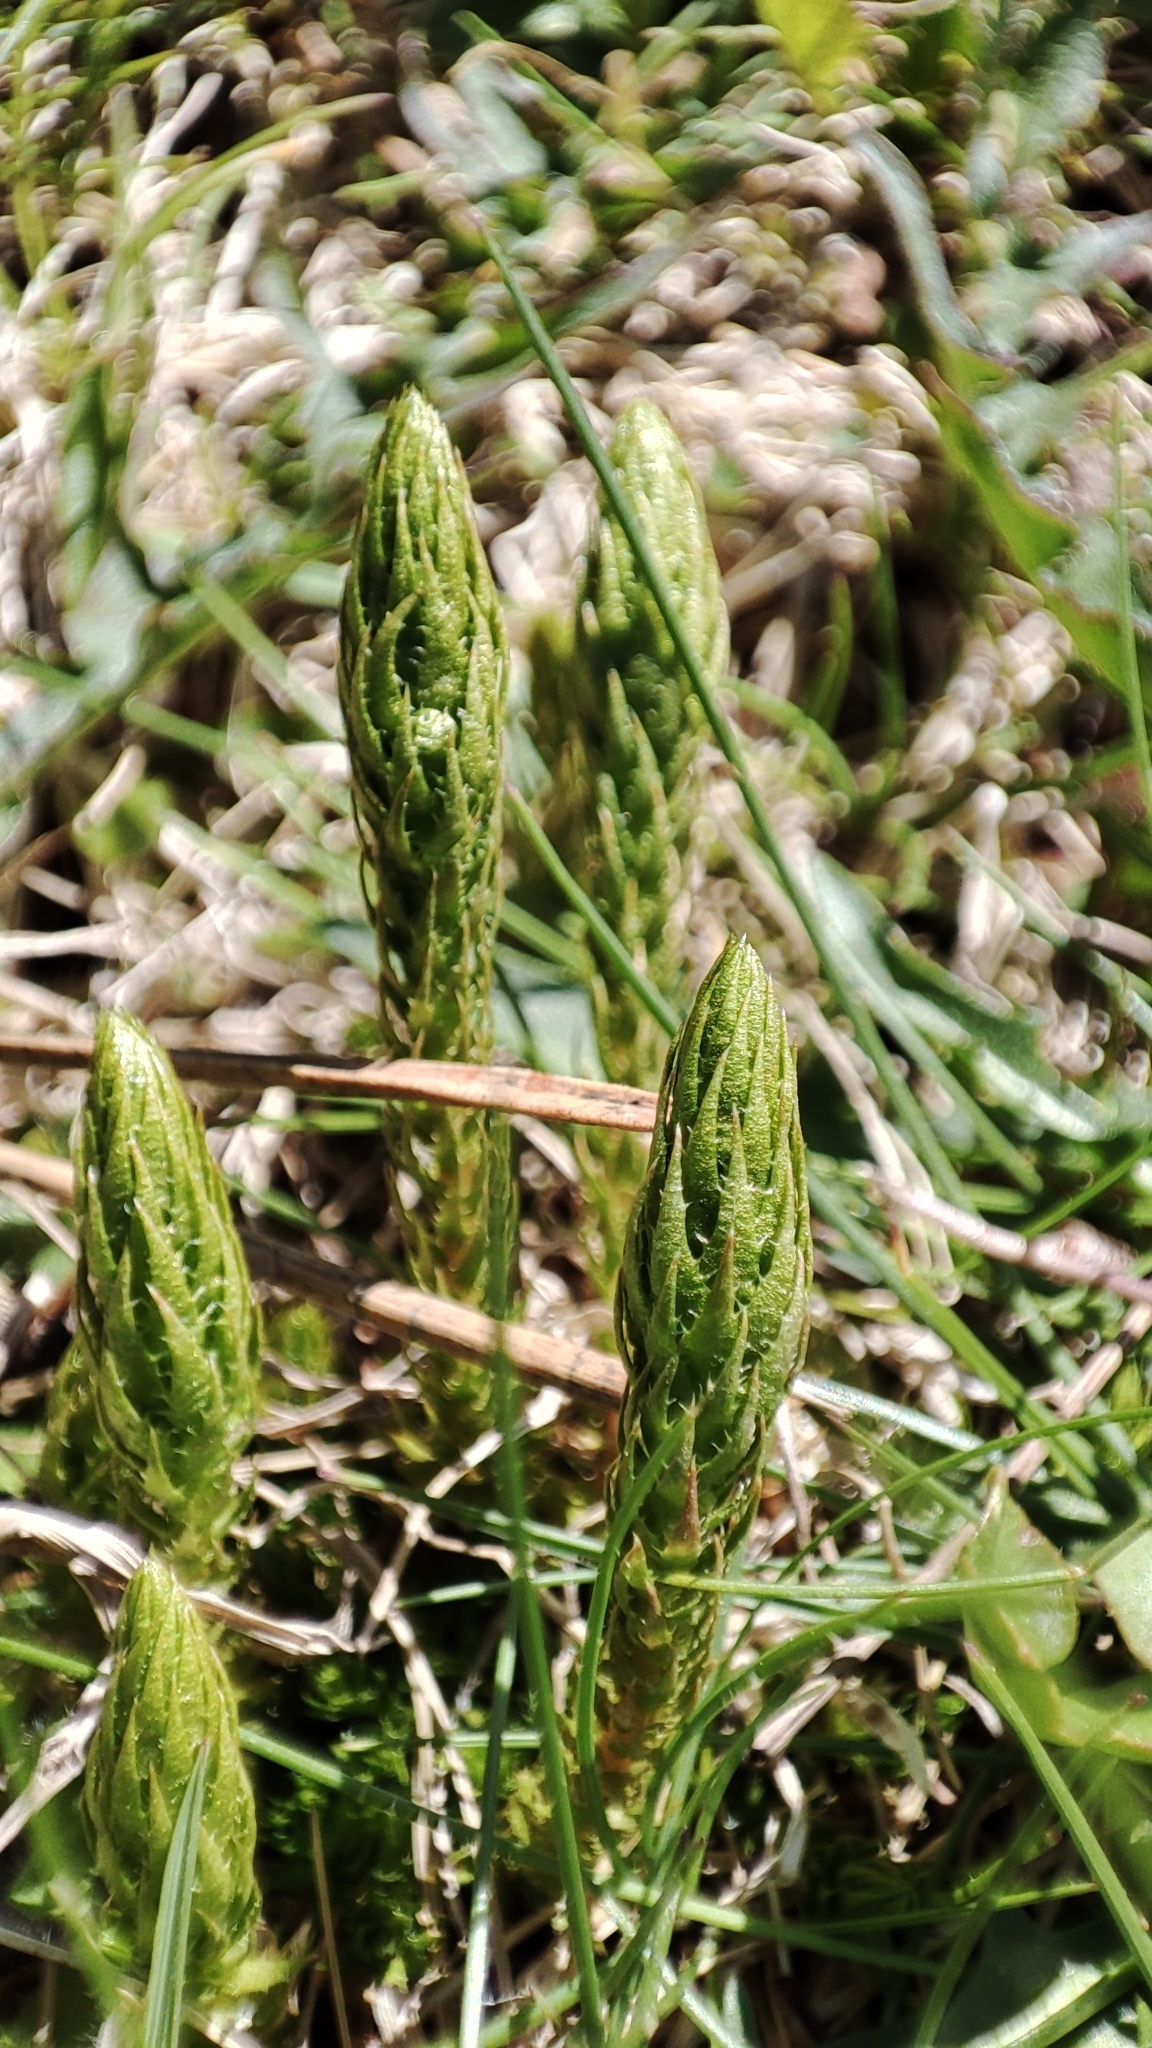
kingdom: Plantae
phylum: Tracheophyta
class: Lycopodiopsida
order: Selaginellales
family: Selaginellaceae
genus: Selaginella
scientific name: Selaginella selaginoides
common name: Prickly mountain-moss
